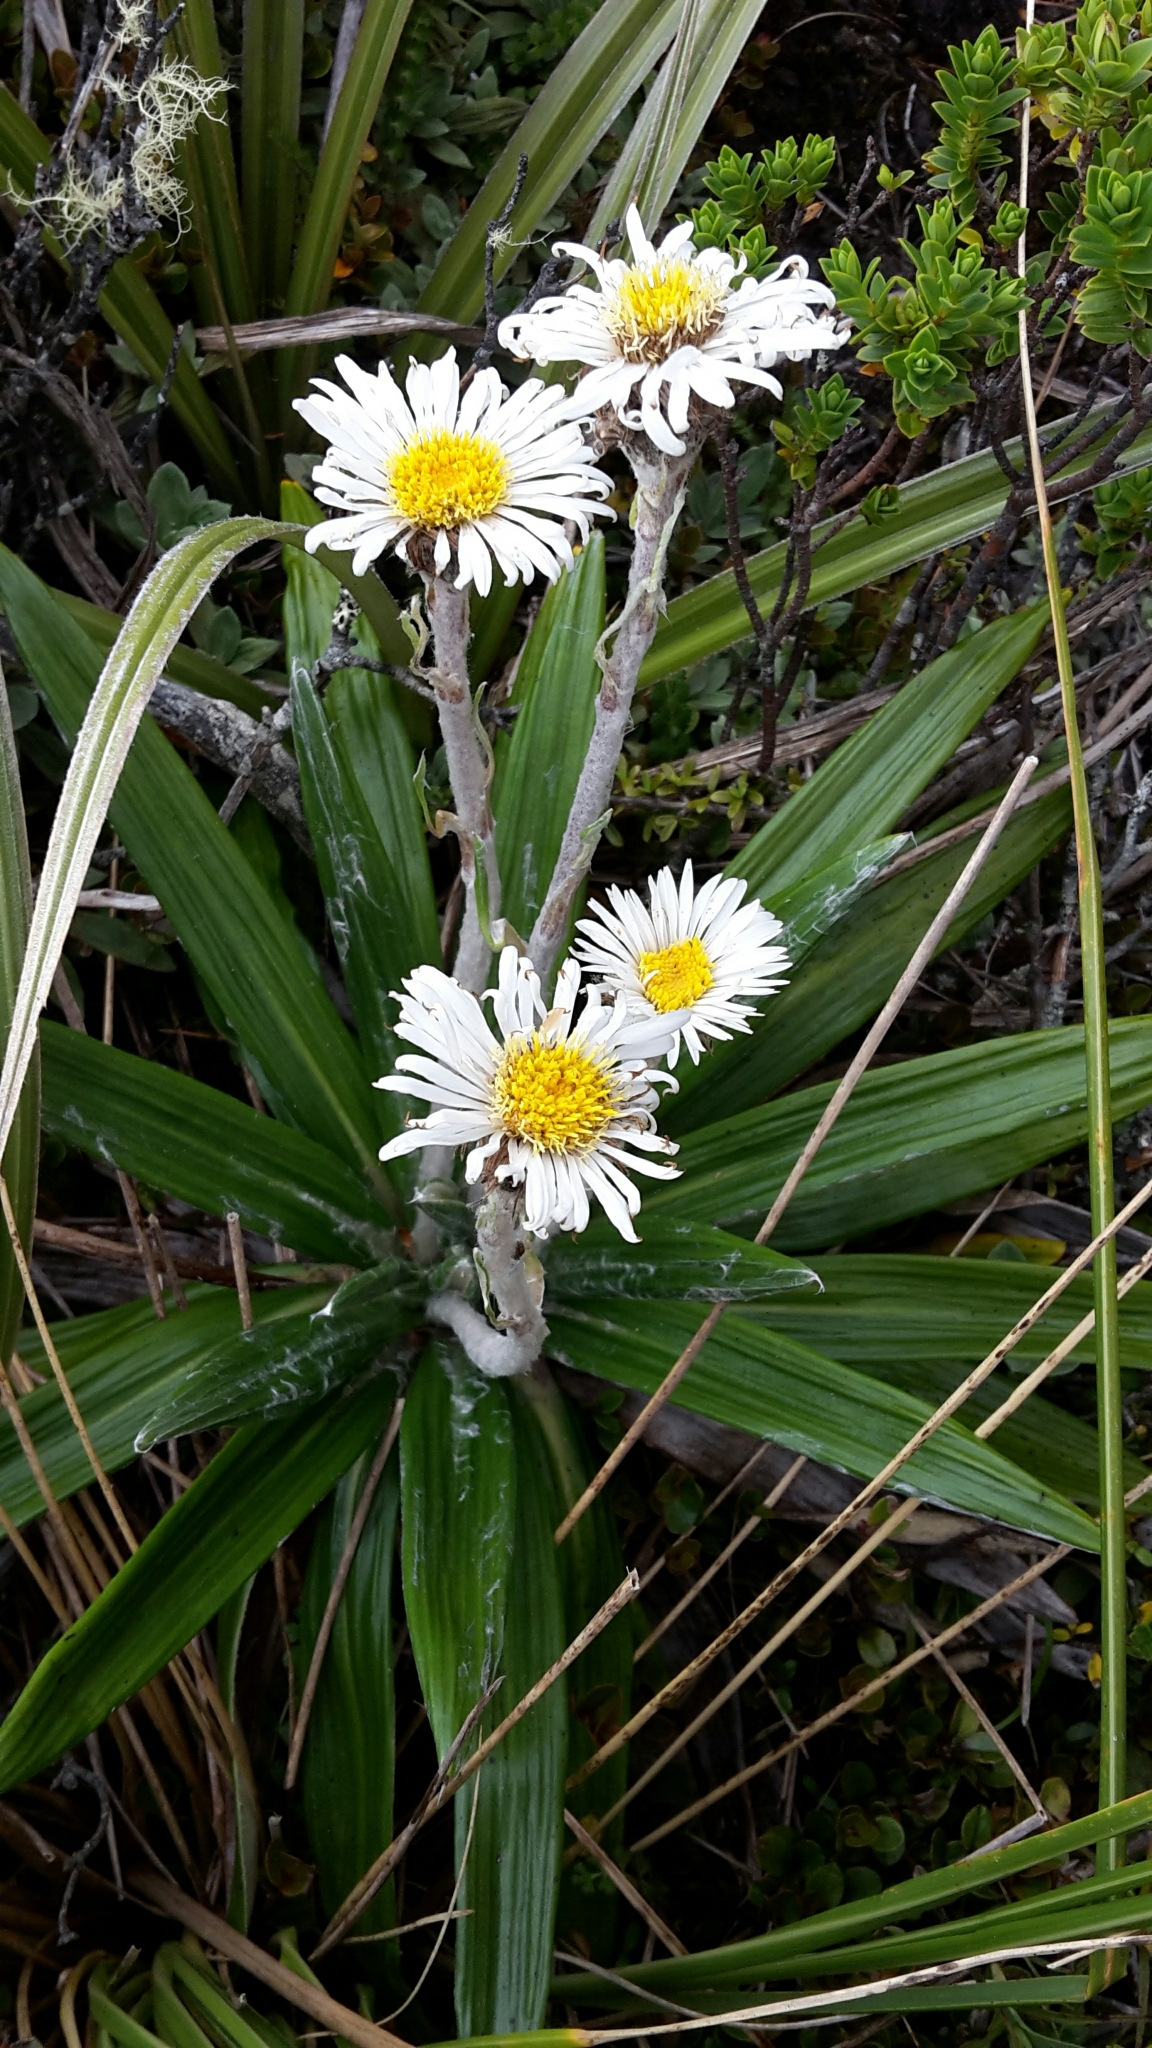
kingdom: Plantae
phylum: Tracheophyta
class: Magnoliopsida
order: Asterales
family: Asteraceae
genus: Celmisia
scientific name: Celmisia spectabilis
